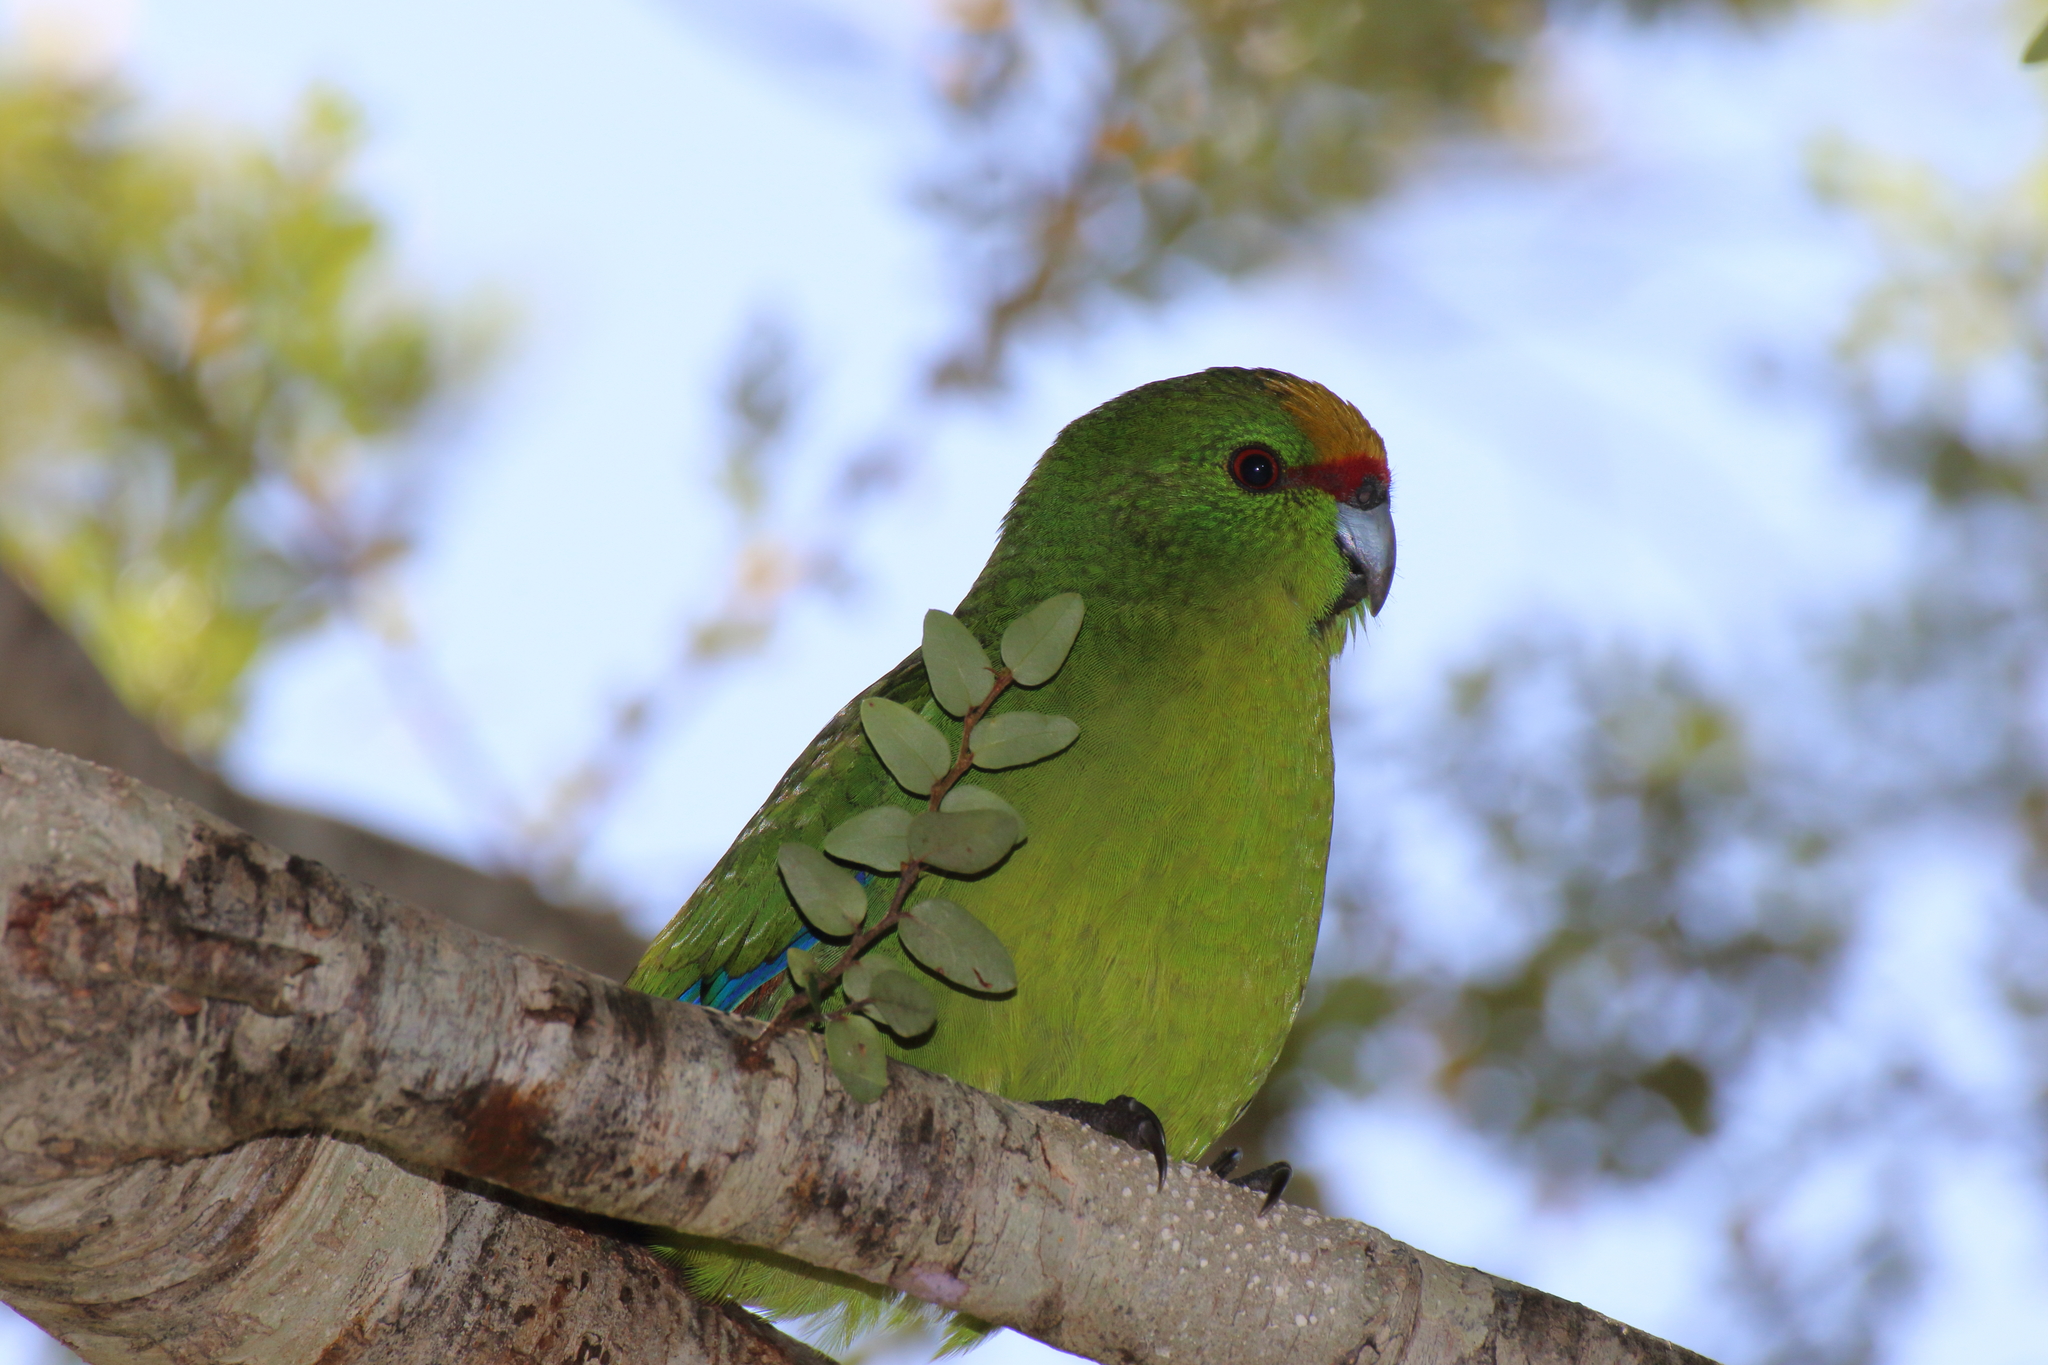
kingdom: Animalia
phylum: Chordata
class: Aves
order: Psittaciformes
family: Psittacidae
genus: Cyanoramphus
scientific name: Cyanoramphus auriceps
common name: Yellow-crowned parakeet
